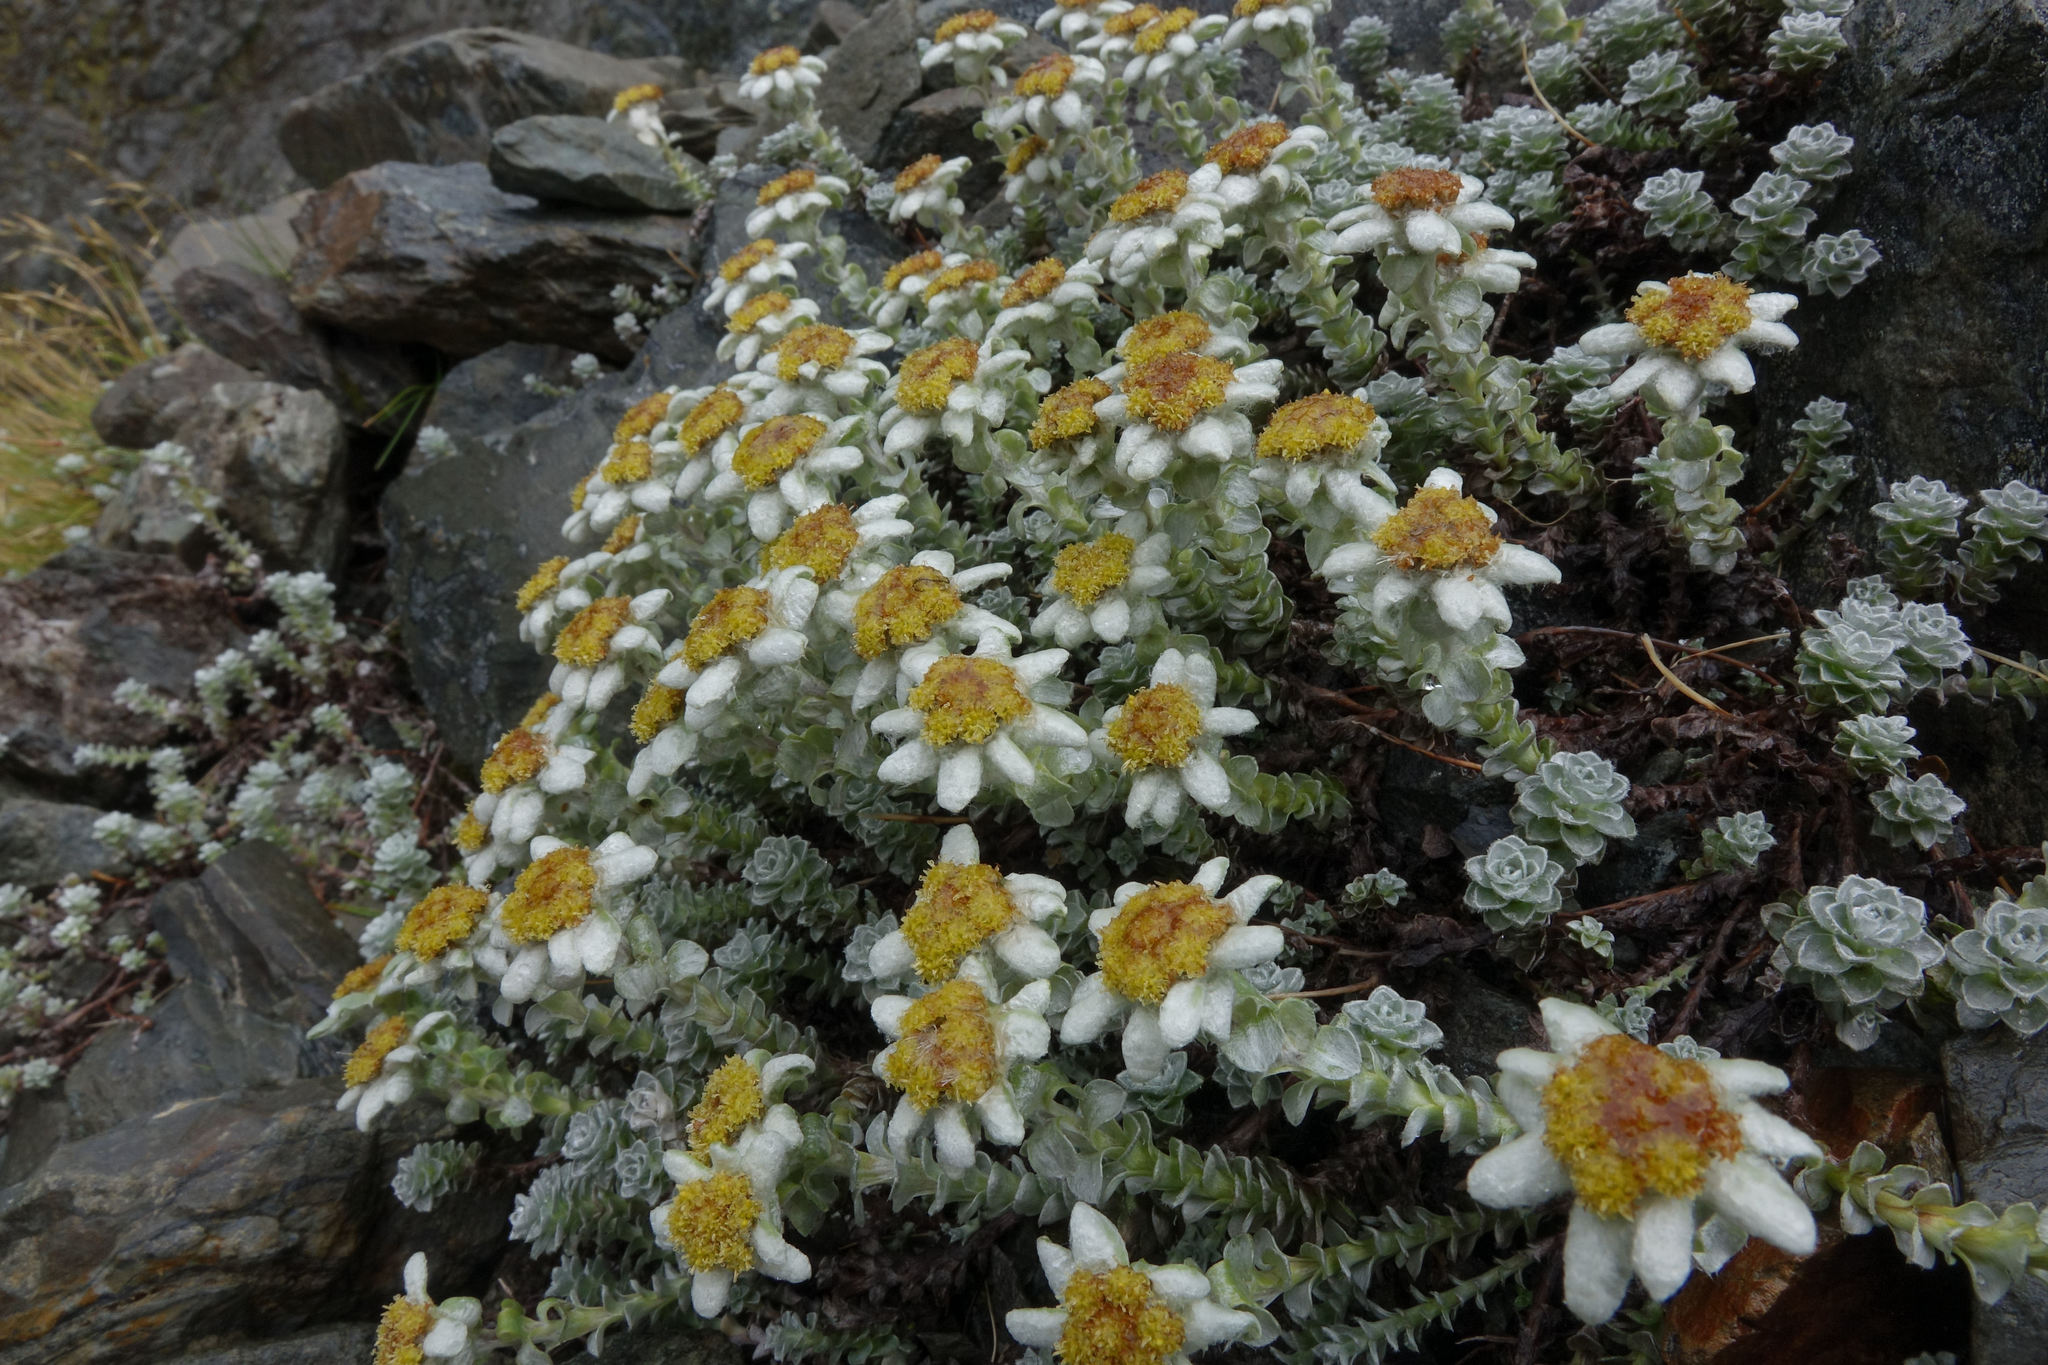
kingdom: Plantae
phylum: Tracheophyta
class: Magnoliopsida
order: Asterales
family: Asteraceae
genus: Leucogenes
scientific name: Leucogenes grandiceps
